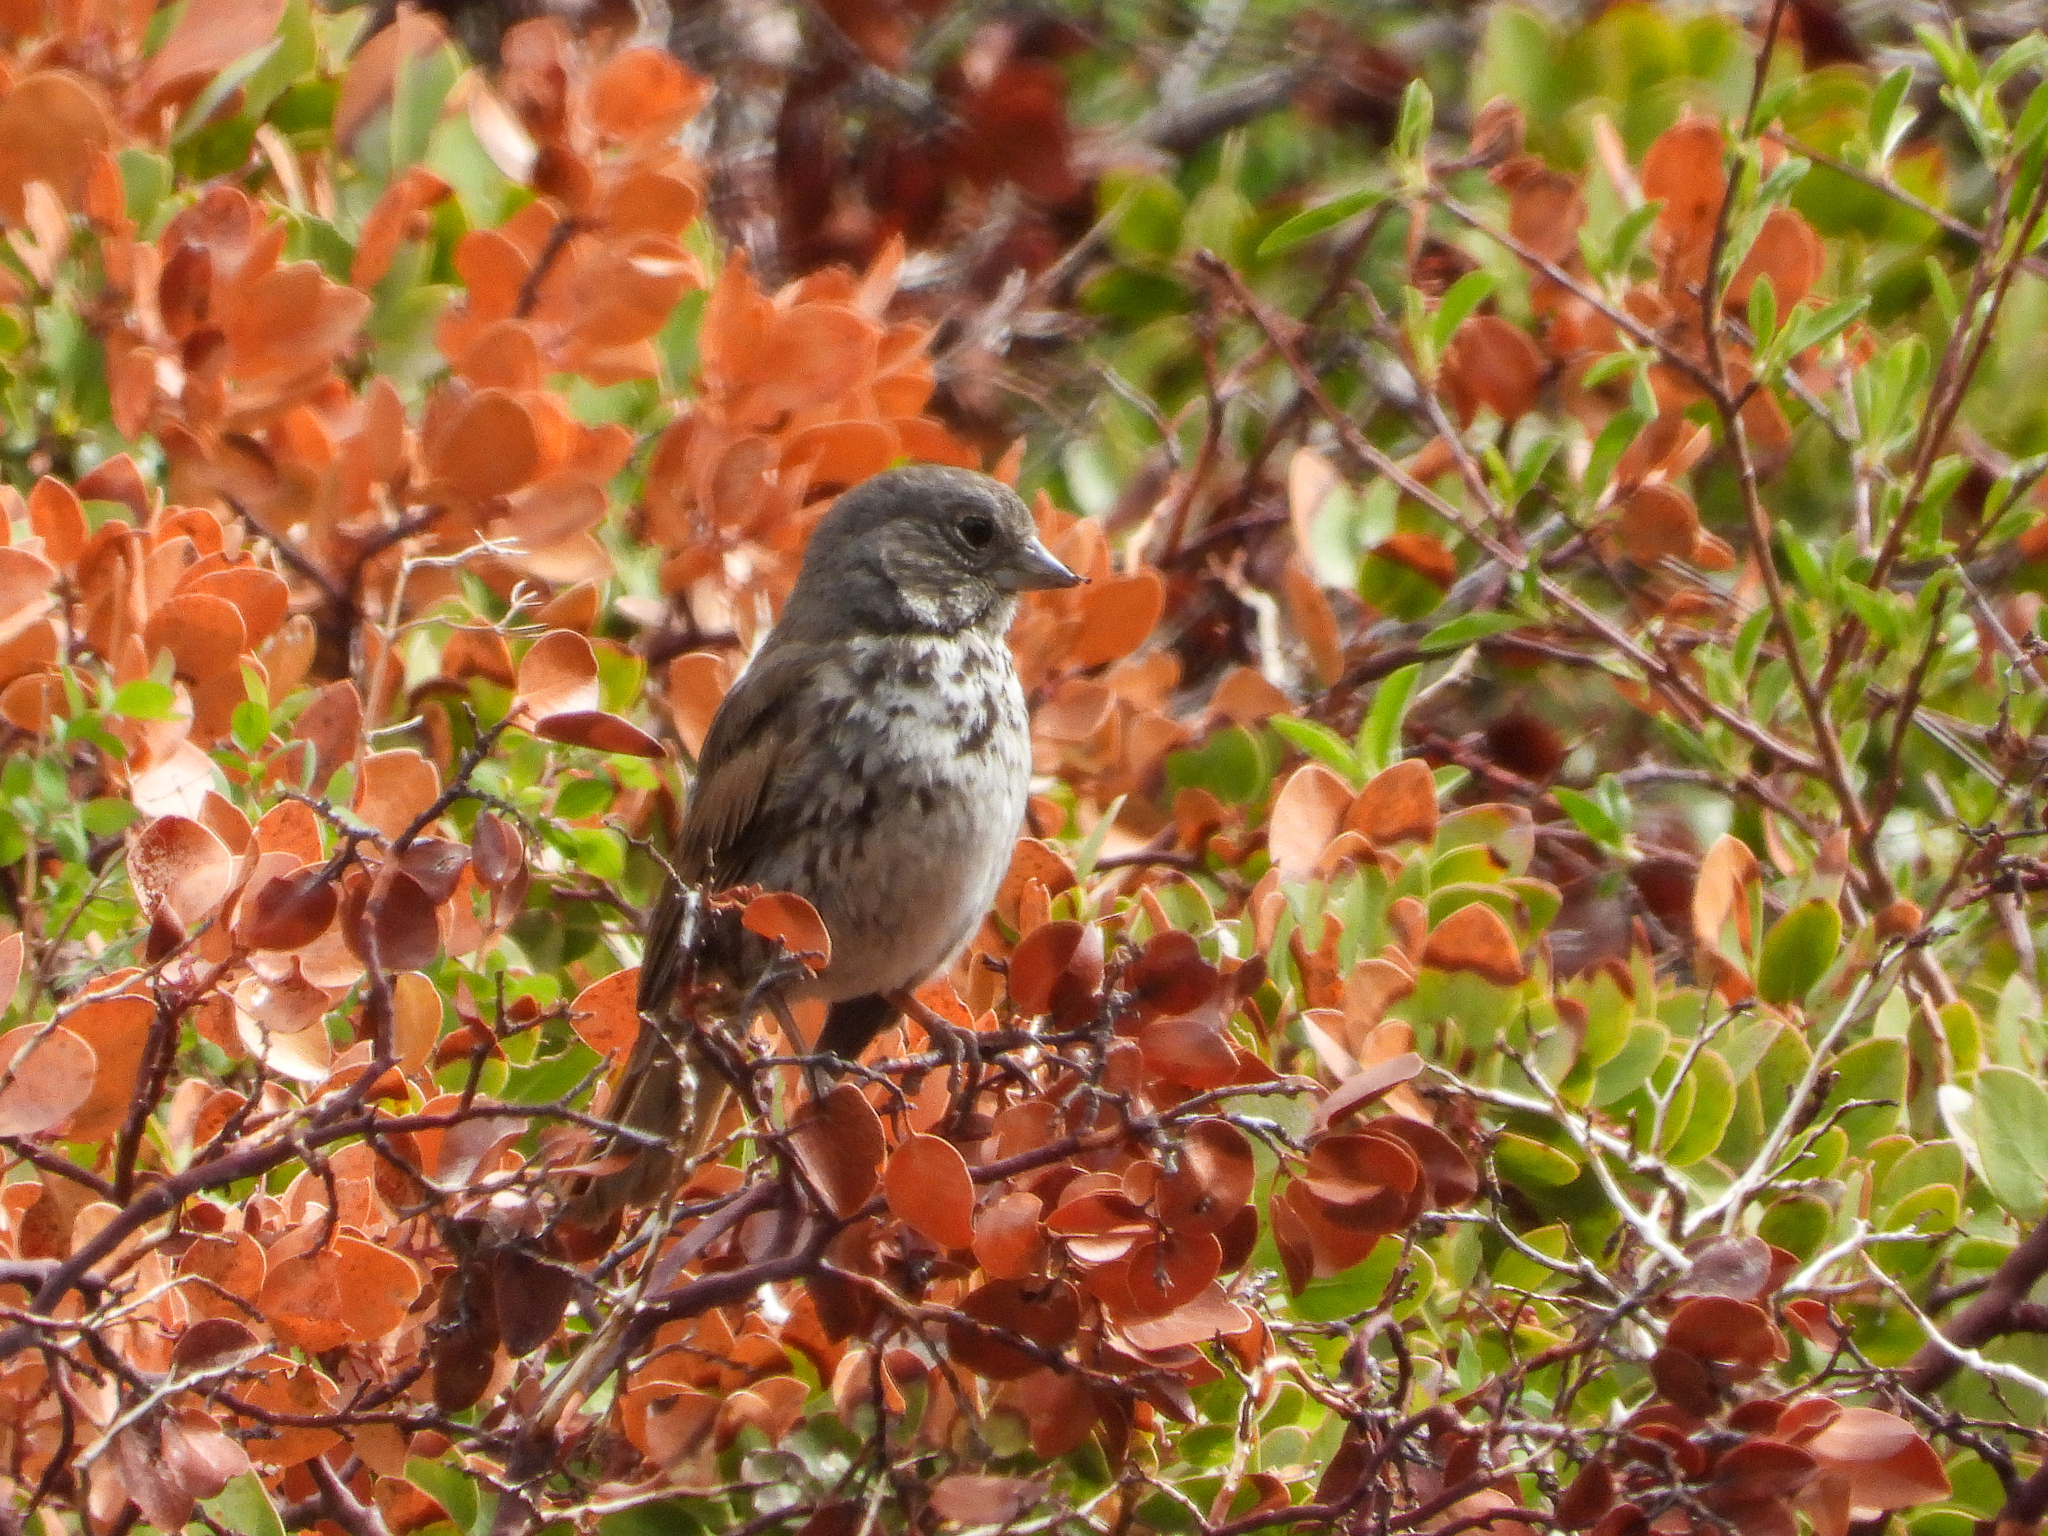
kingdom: Animalia
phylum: Chordata
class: Aves
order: Passeriformes
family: Passerellidae
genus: Passerella
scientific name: Passerella iliaca
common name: Fox sparrow
